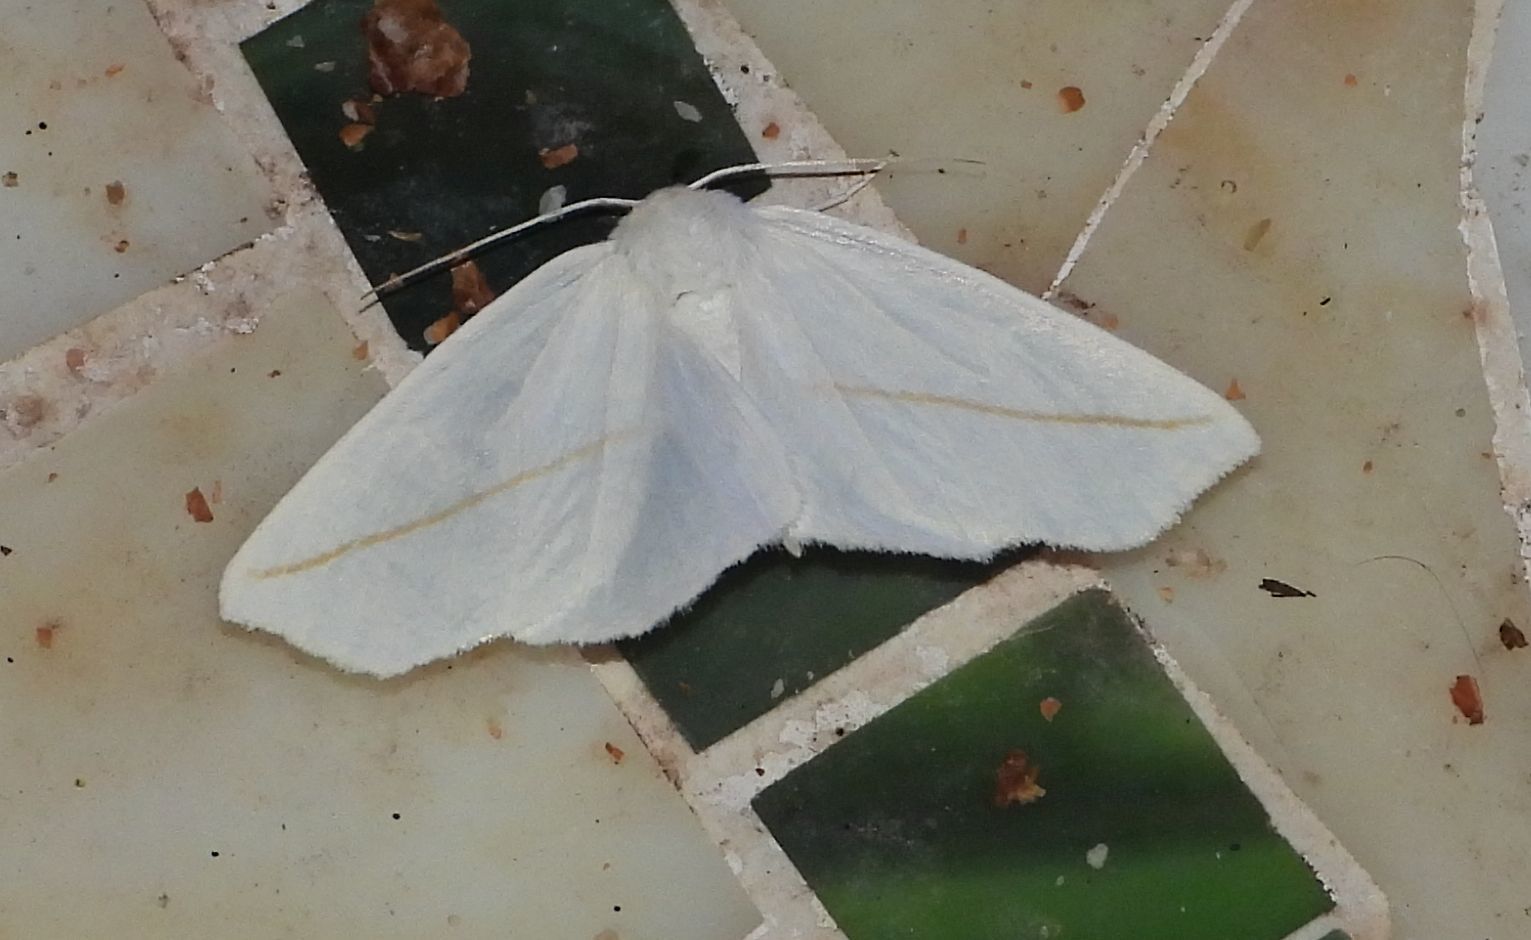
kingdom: Animalia
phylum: Arthropoda
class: Insecta
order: Lepidoptera
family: Geometridae
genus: Tetracis
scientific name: Tetracis cachexiata
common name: White slant-line
